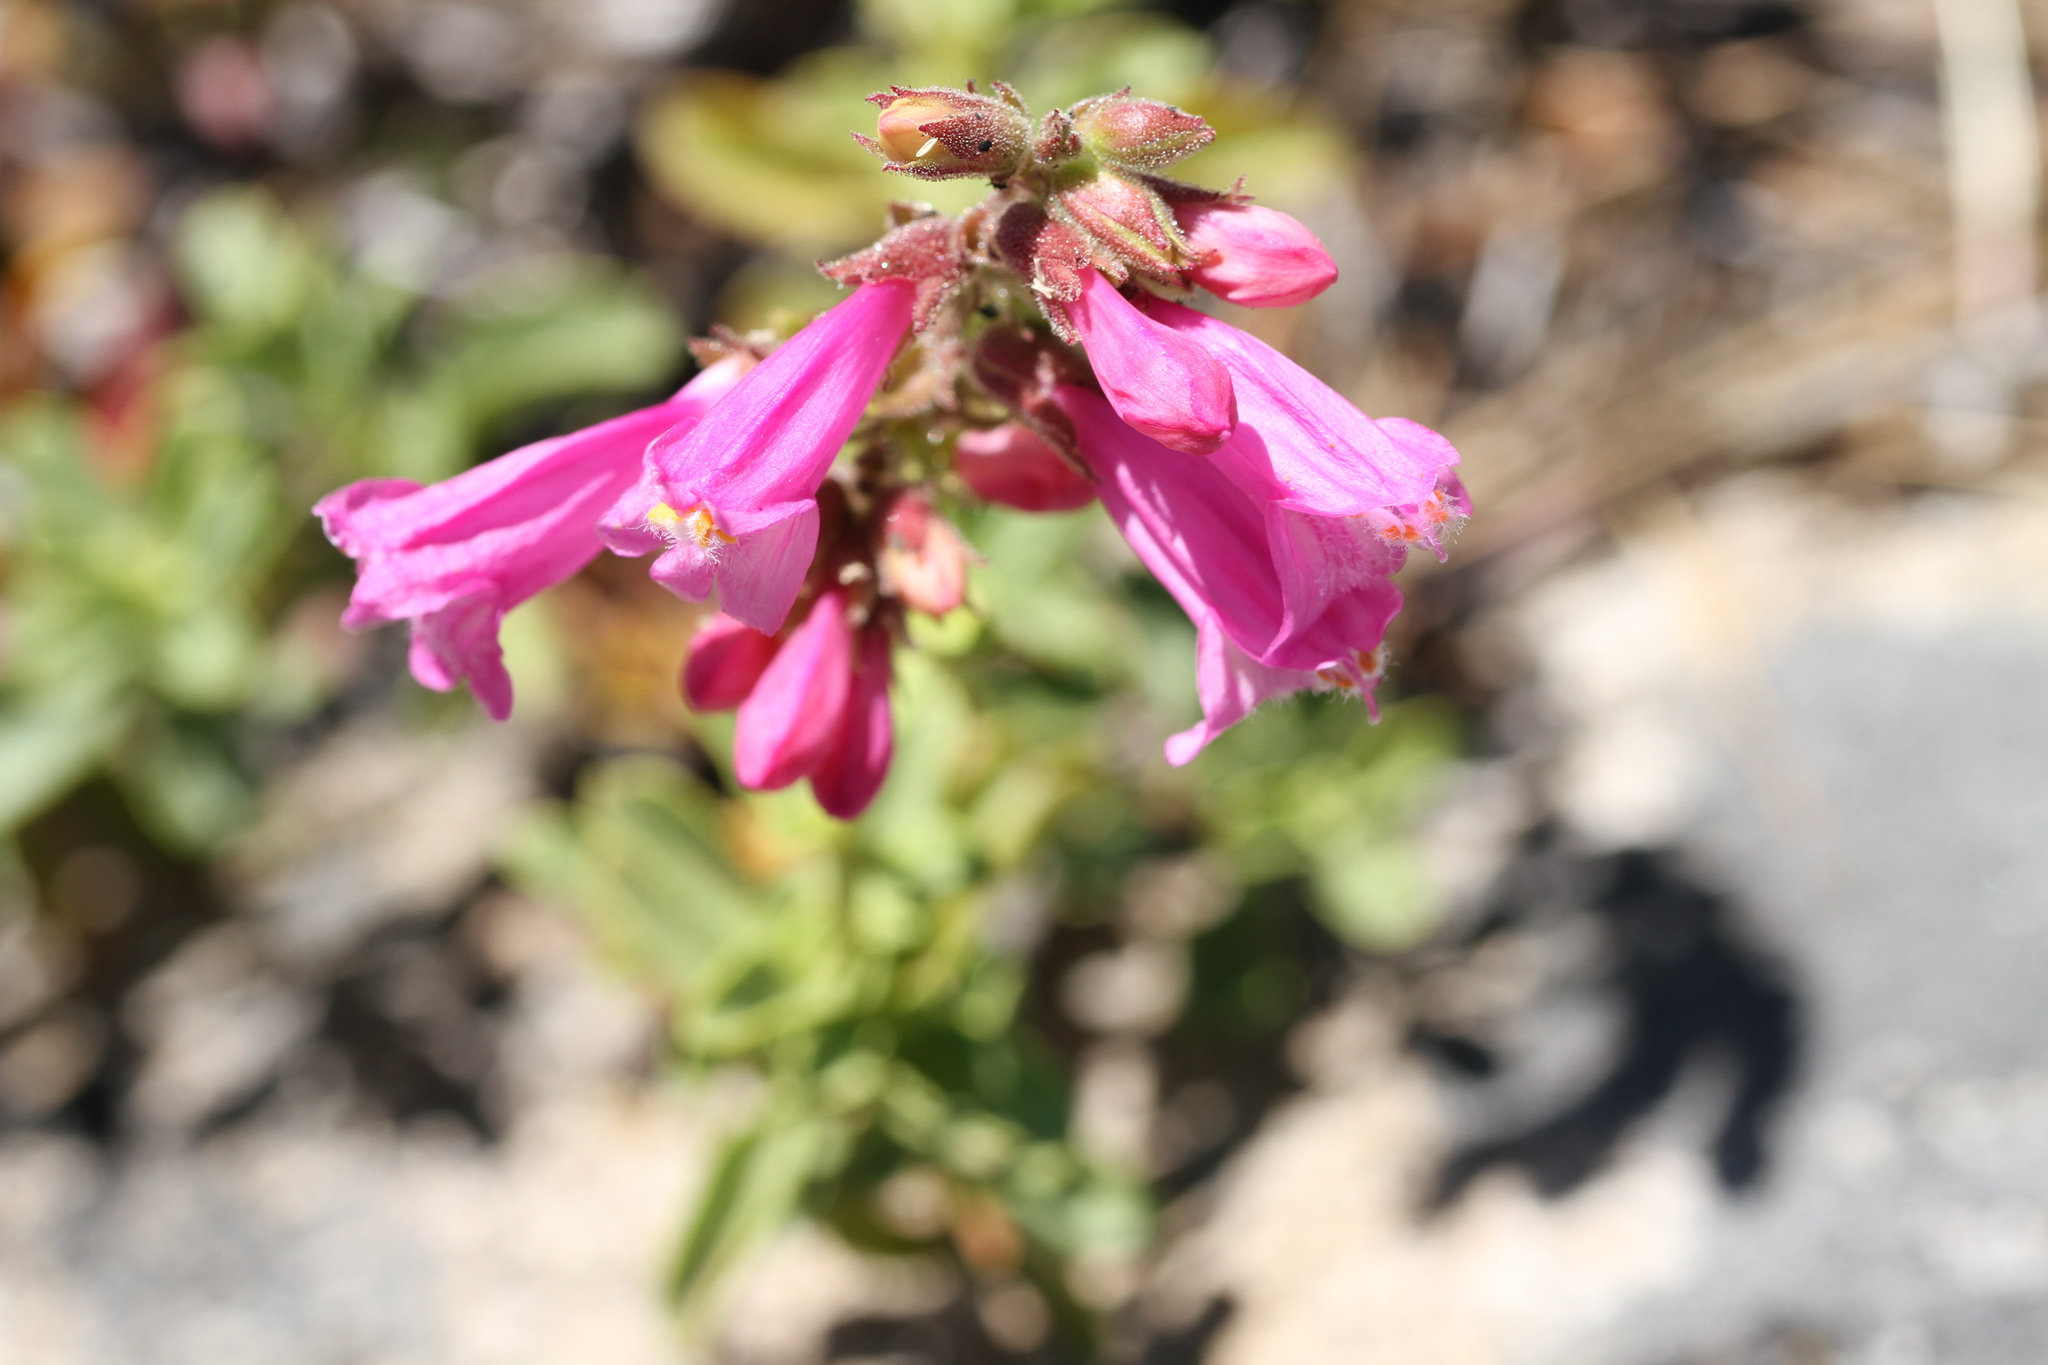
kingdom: Plantae
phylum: Tracheophyta
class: Magnoliopsida
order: Lamiales
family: Plantaginaceae
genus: Penstemon
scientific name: Penstemon newberryi
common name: Mountain-pride
